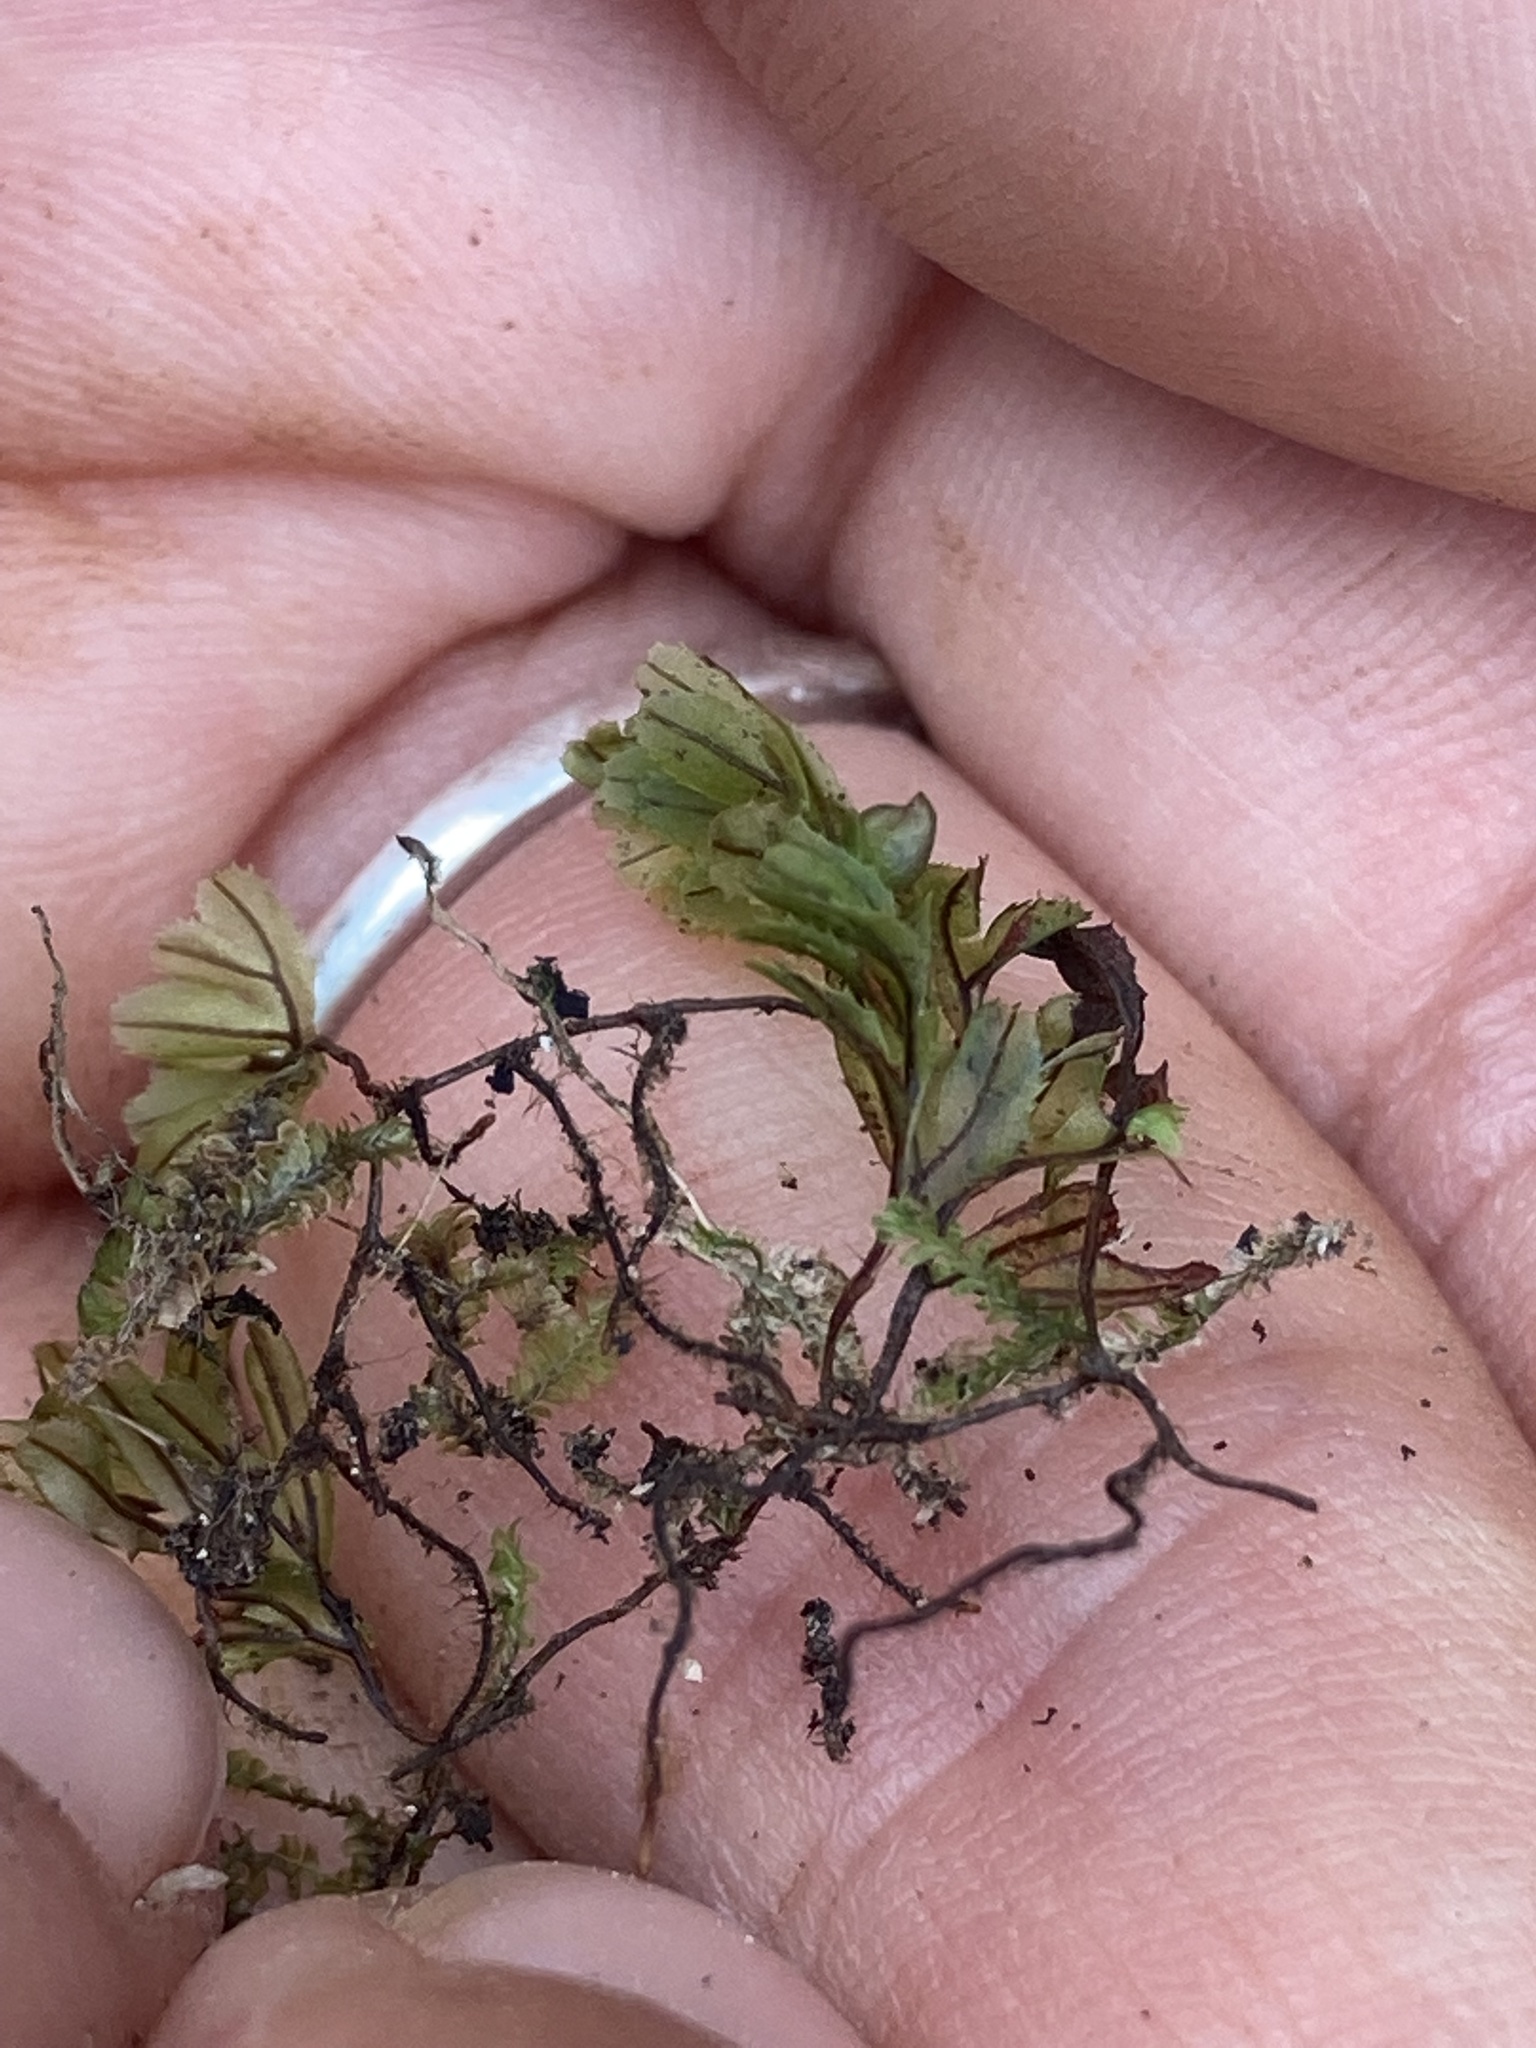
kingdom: Plantae
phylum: Tracheophyta
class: Polypodiopsida
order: Hymenophyllales
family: Hymenophyllaceae
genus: Hymenophyllum
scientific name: Hymenophyllum wilsonii
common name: Wilson's filmy fern
